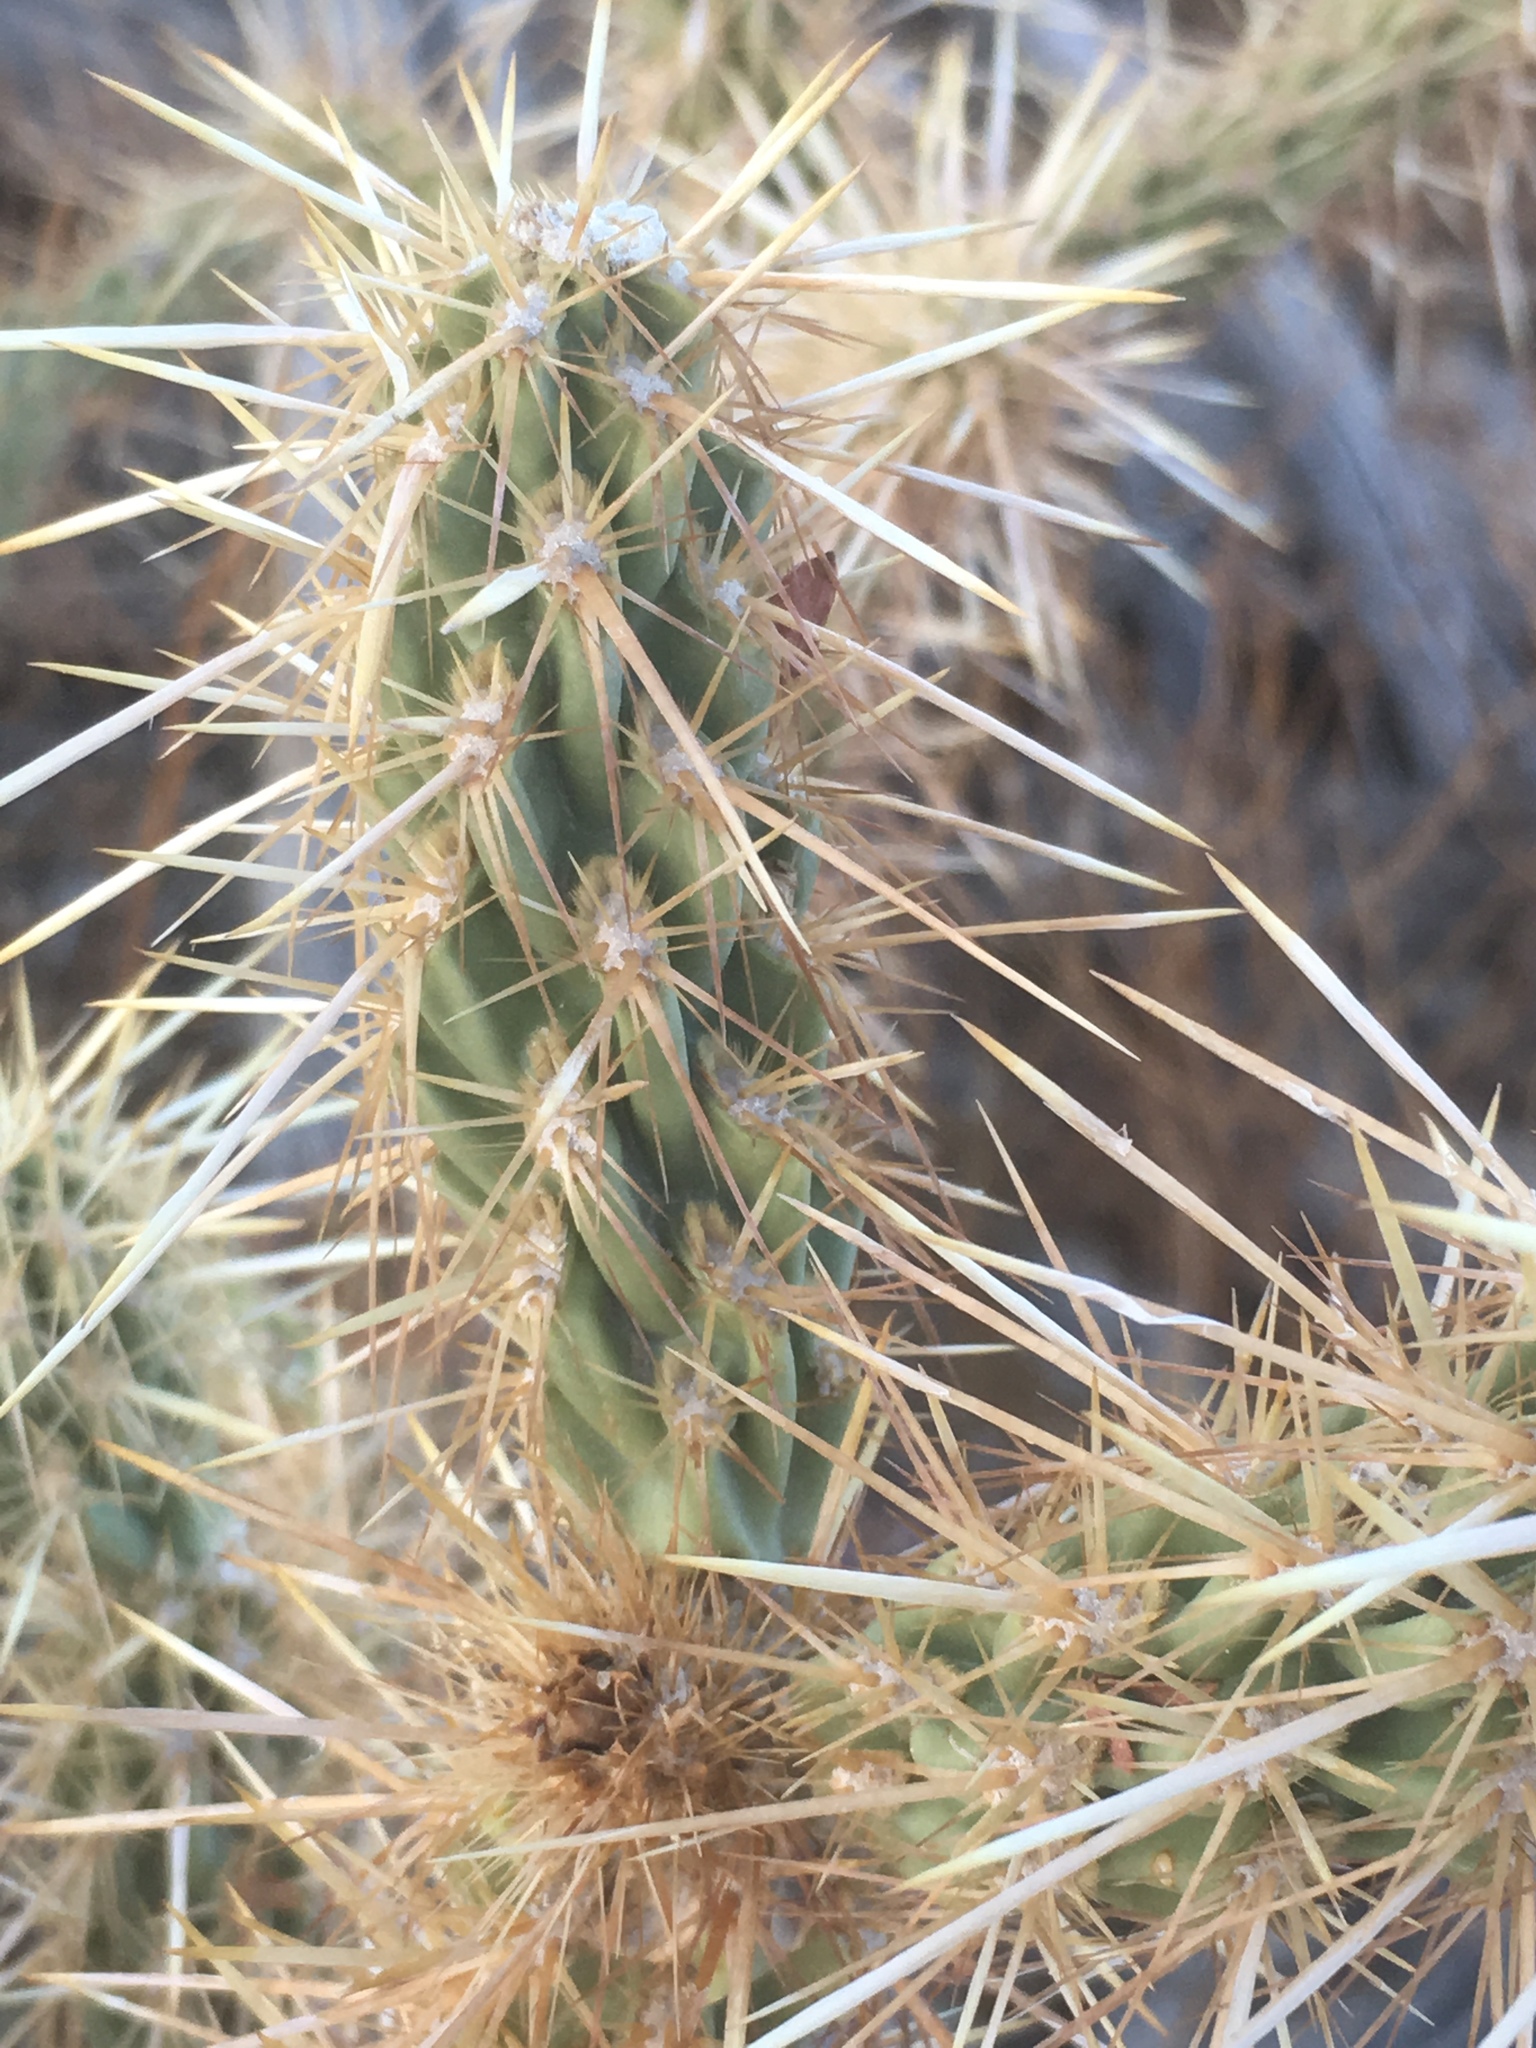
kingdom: Plantae
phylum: Tracheophyta
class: Magnoliopsida
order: Caryophyllales
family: Cactaceae
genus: Cylindropuntia
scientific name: Cylindropuntia ganderi
